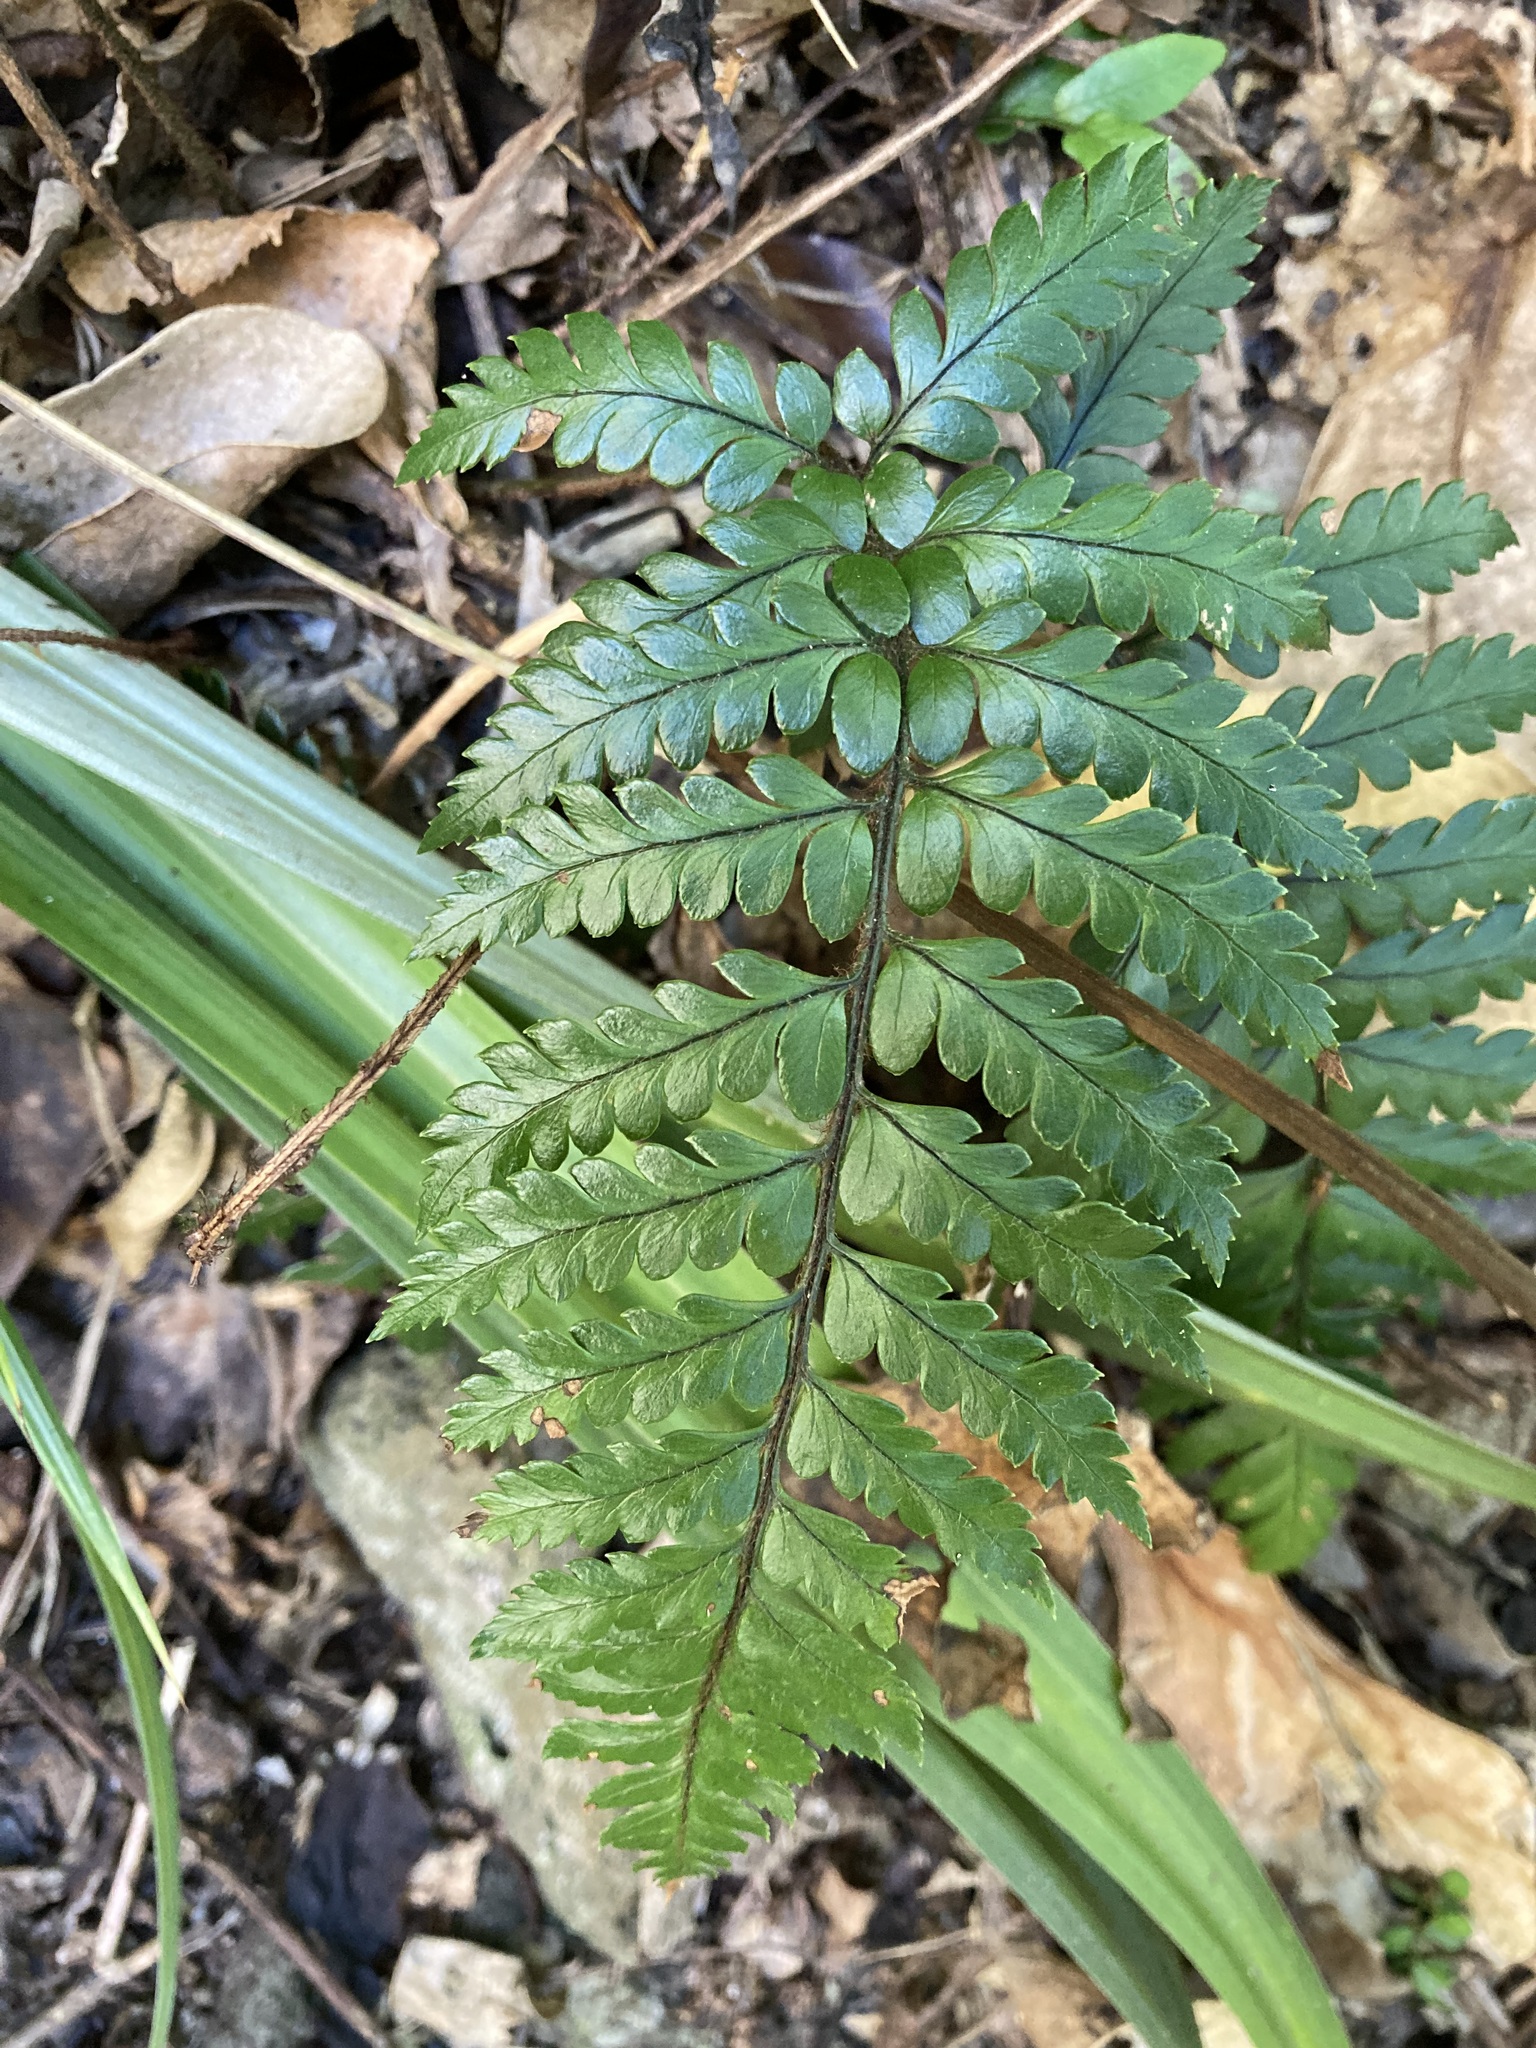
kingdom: Plantae
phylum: Tracheophyta
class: Polypodiopsida
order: Polypodiales
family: Dryopteridaceae
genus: Polystichum
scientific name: Polystichum wawranum
